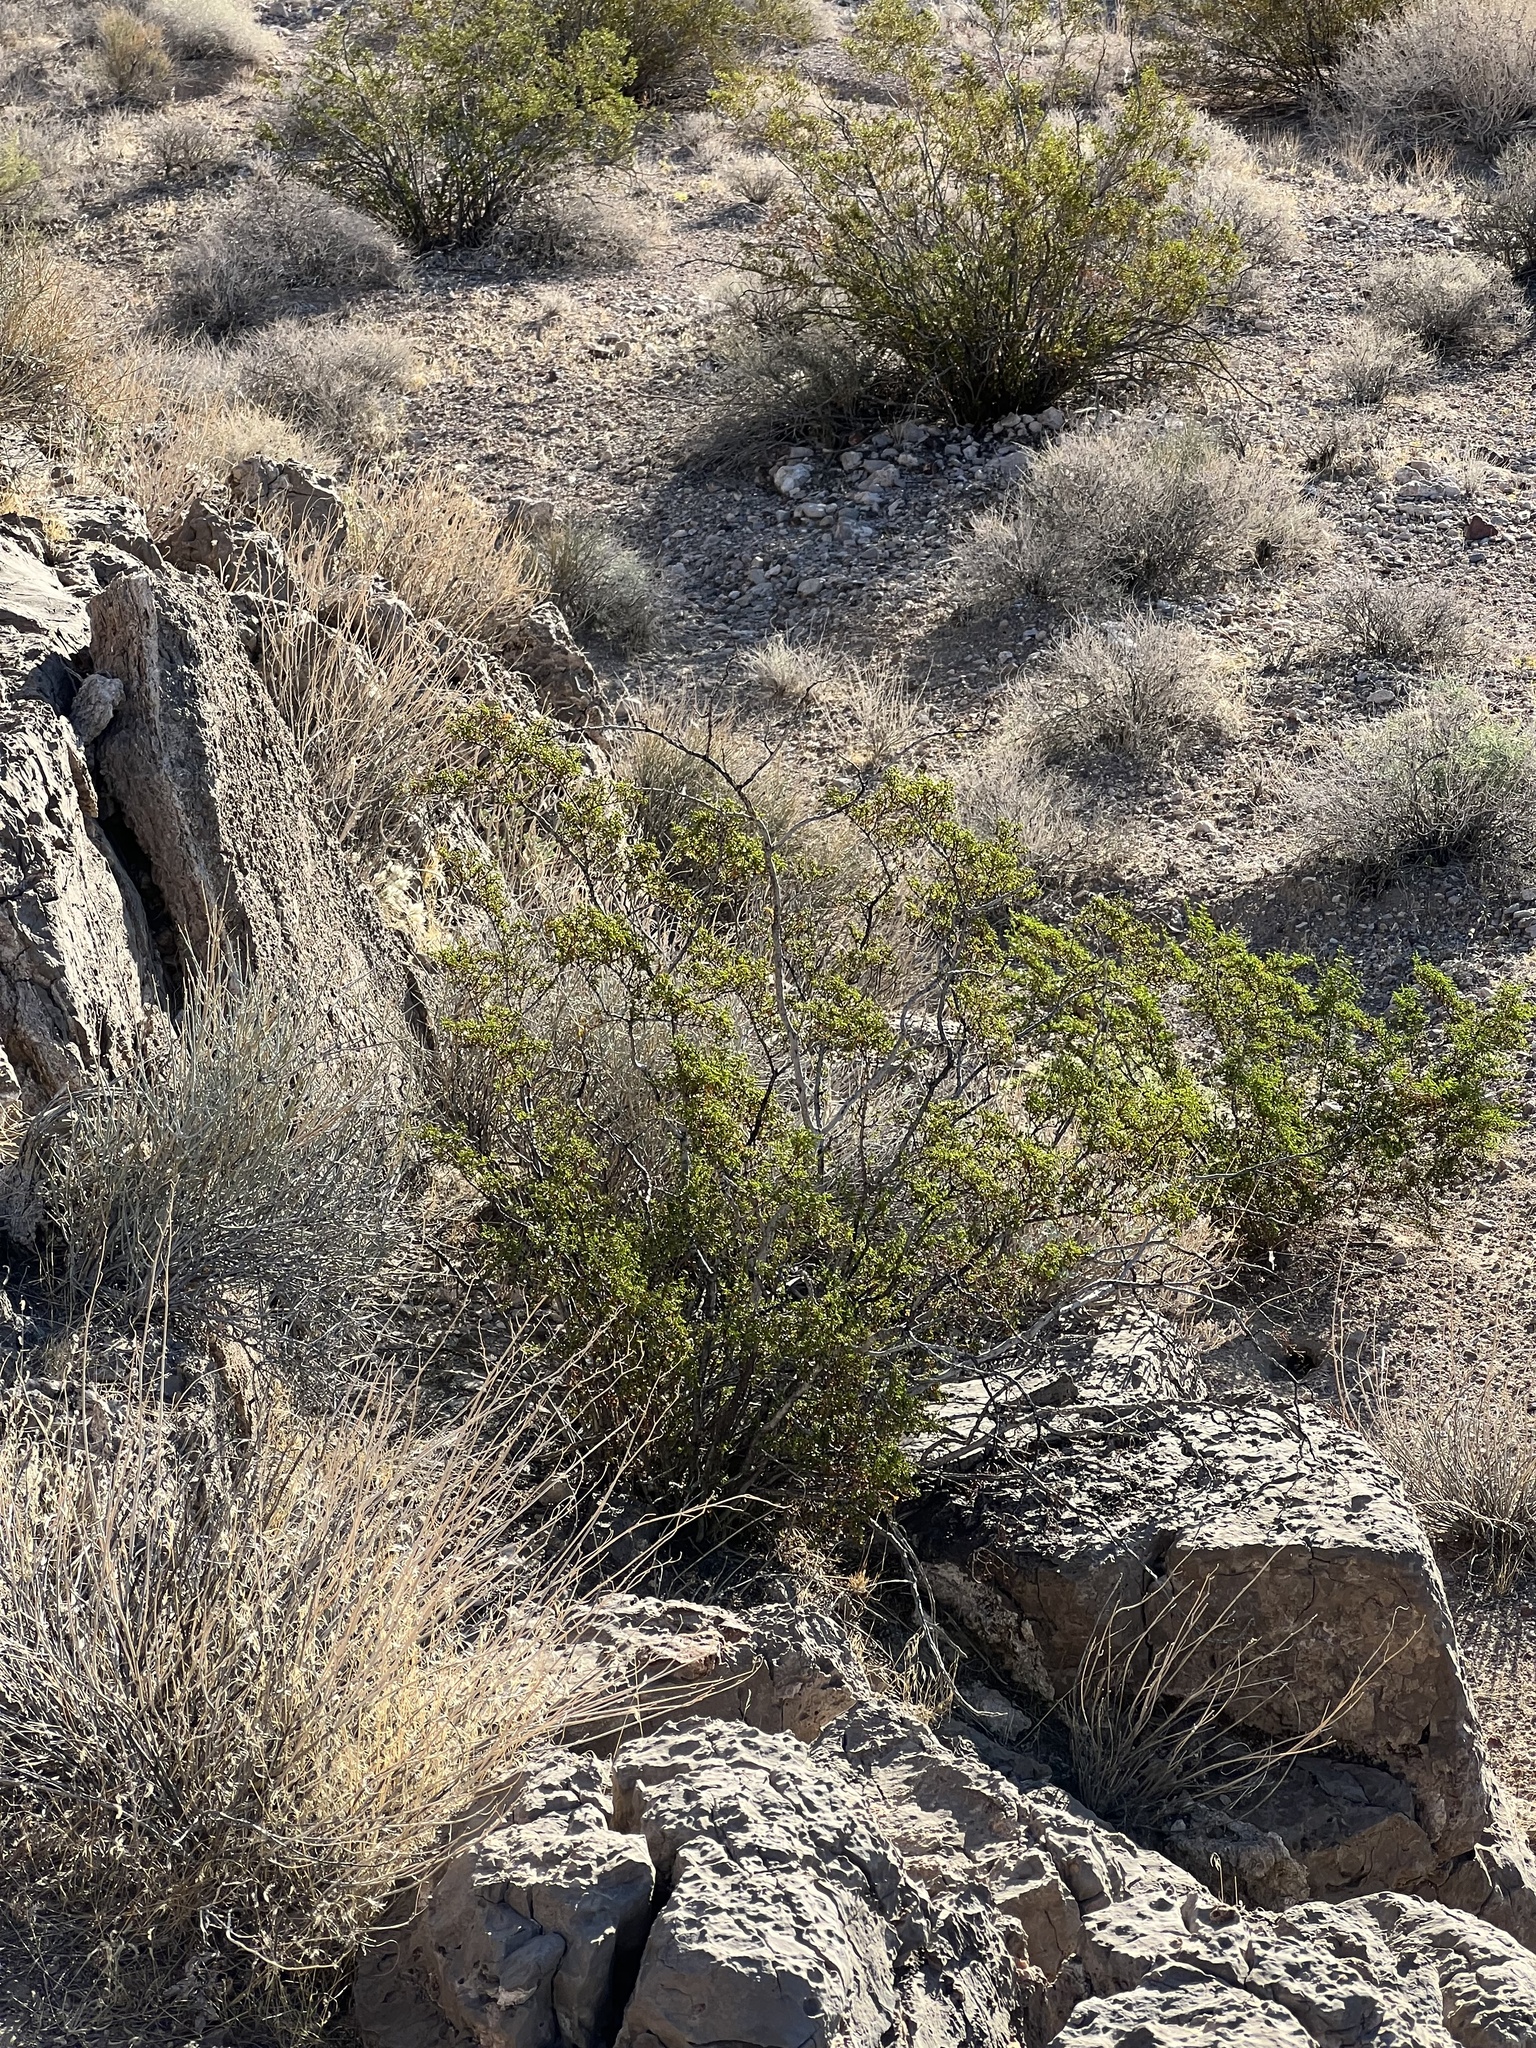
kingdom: Plantae
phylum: Tracheophyta
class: Magnoliopsida
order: Zygophyllales
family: Zygophyllaceae
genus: Larrea
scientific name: Larrea tridentata
